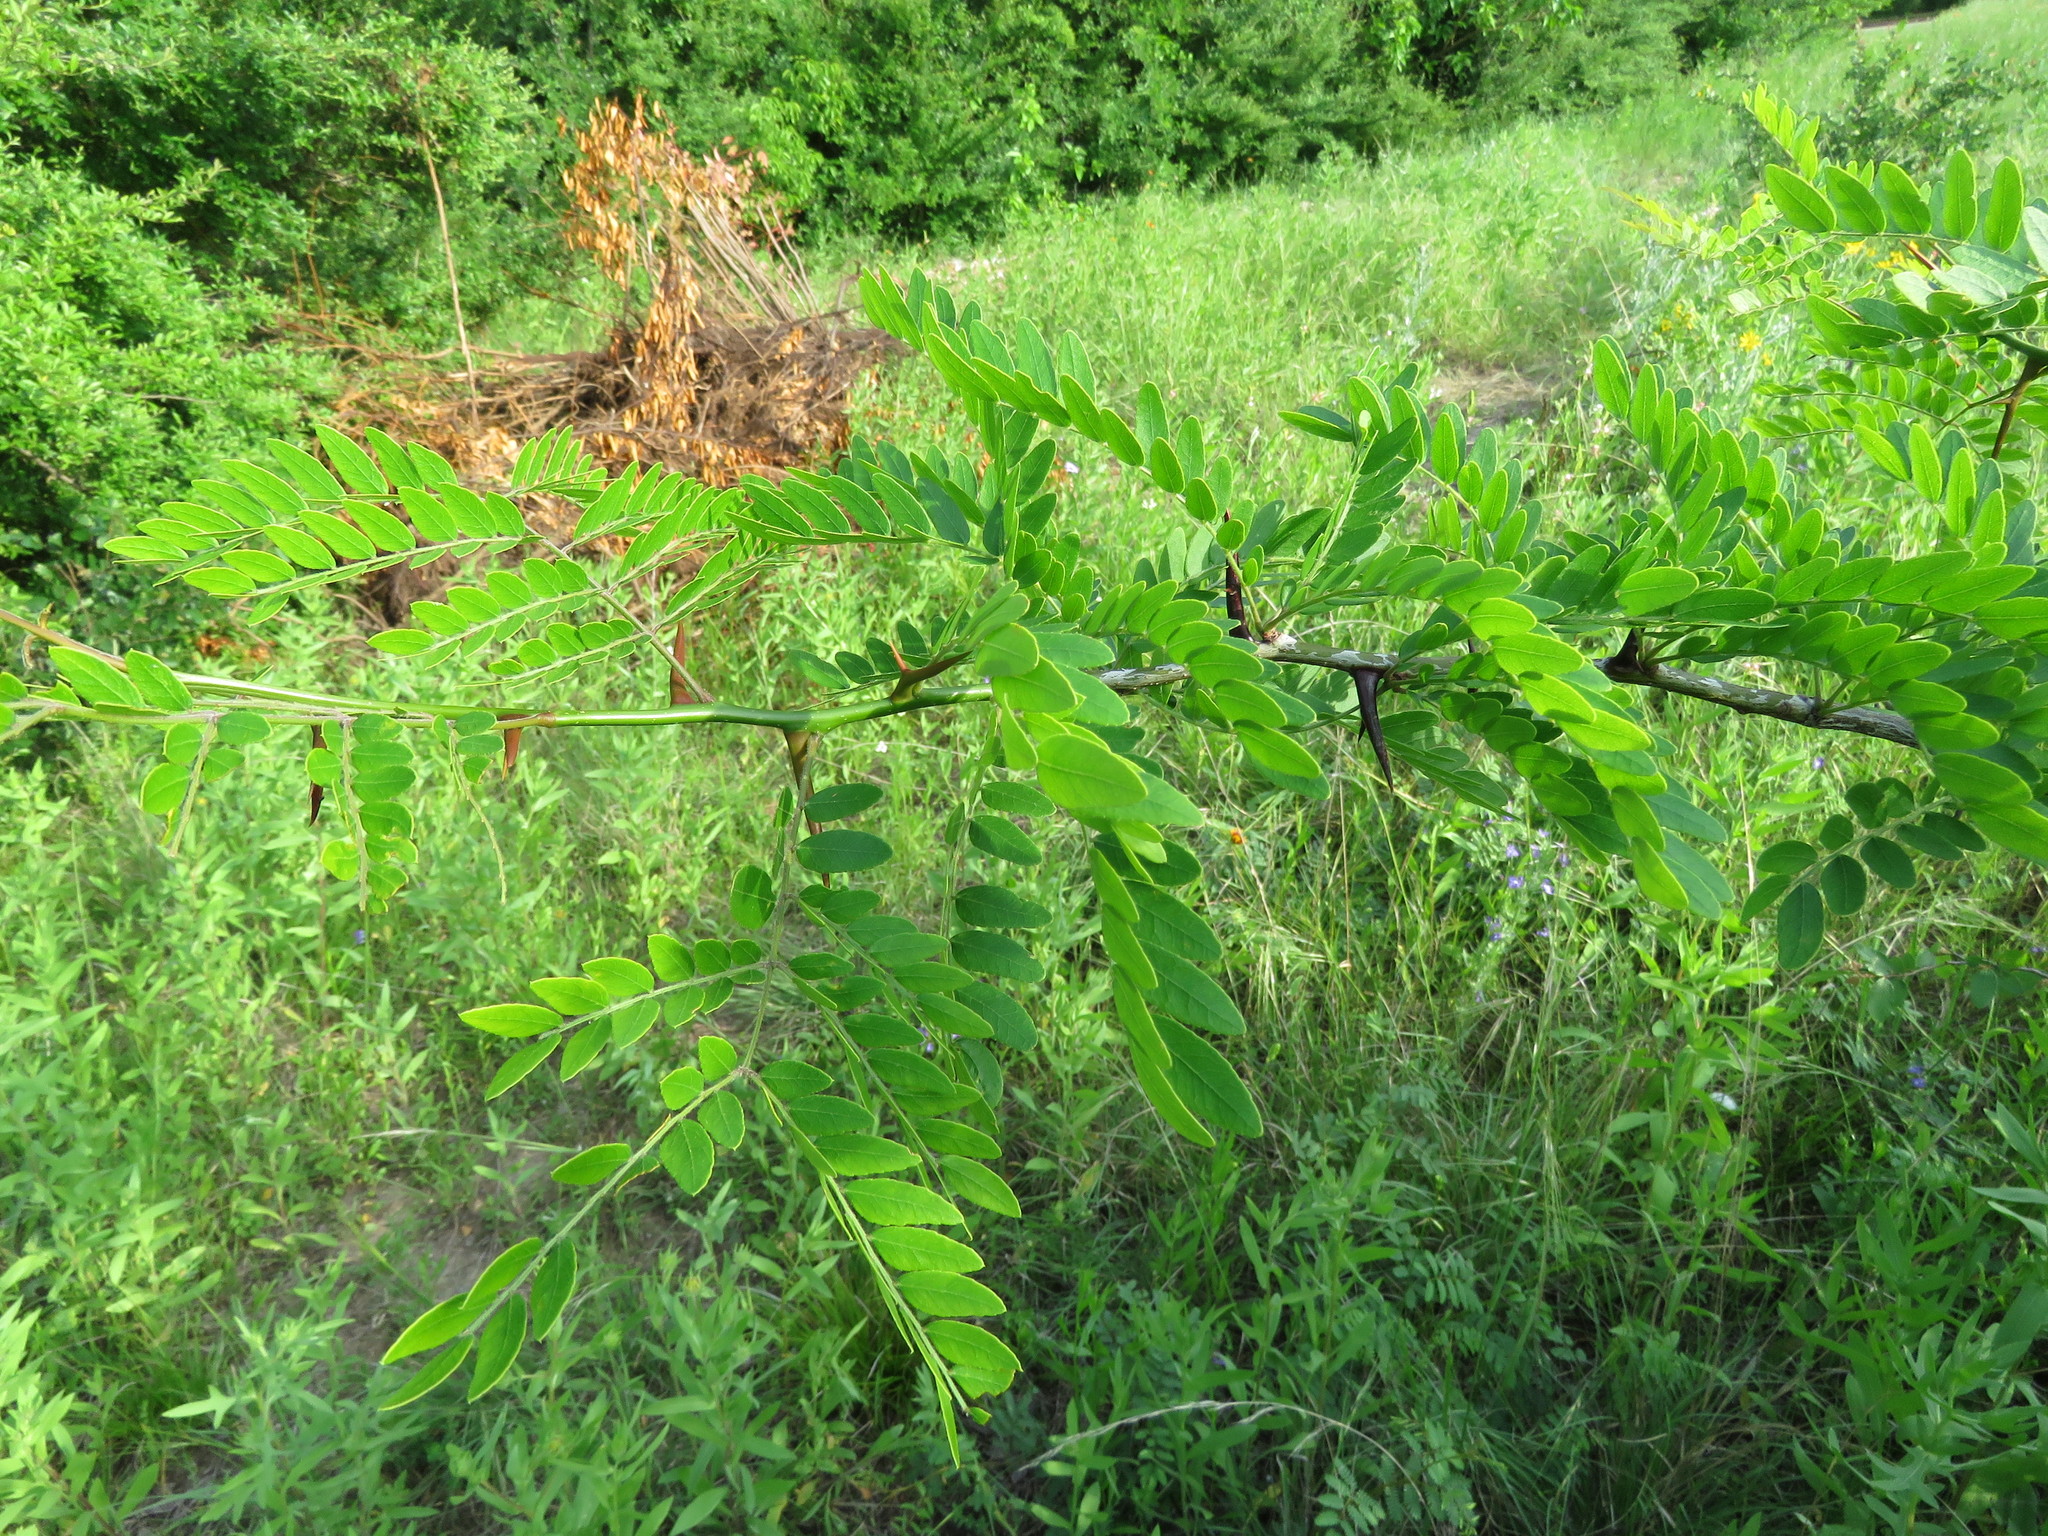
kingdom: Plantae
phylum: Tracheophyta
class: Magnoliopsida
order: Fabales
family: Fabaceae
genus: Gleditsia
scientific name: Gleditsia triacanthos
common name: Common honeylocust
